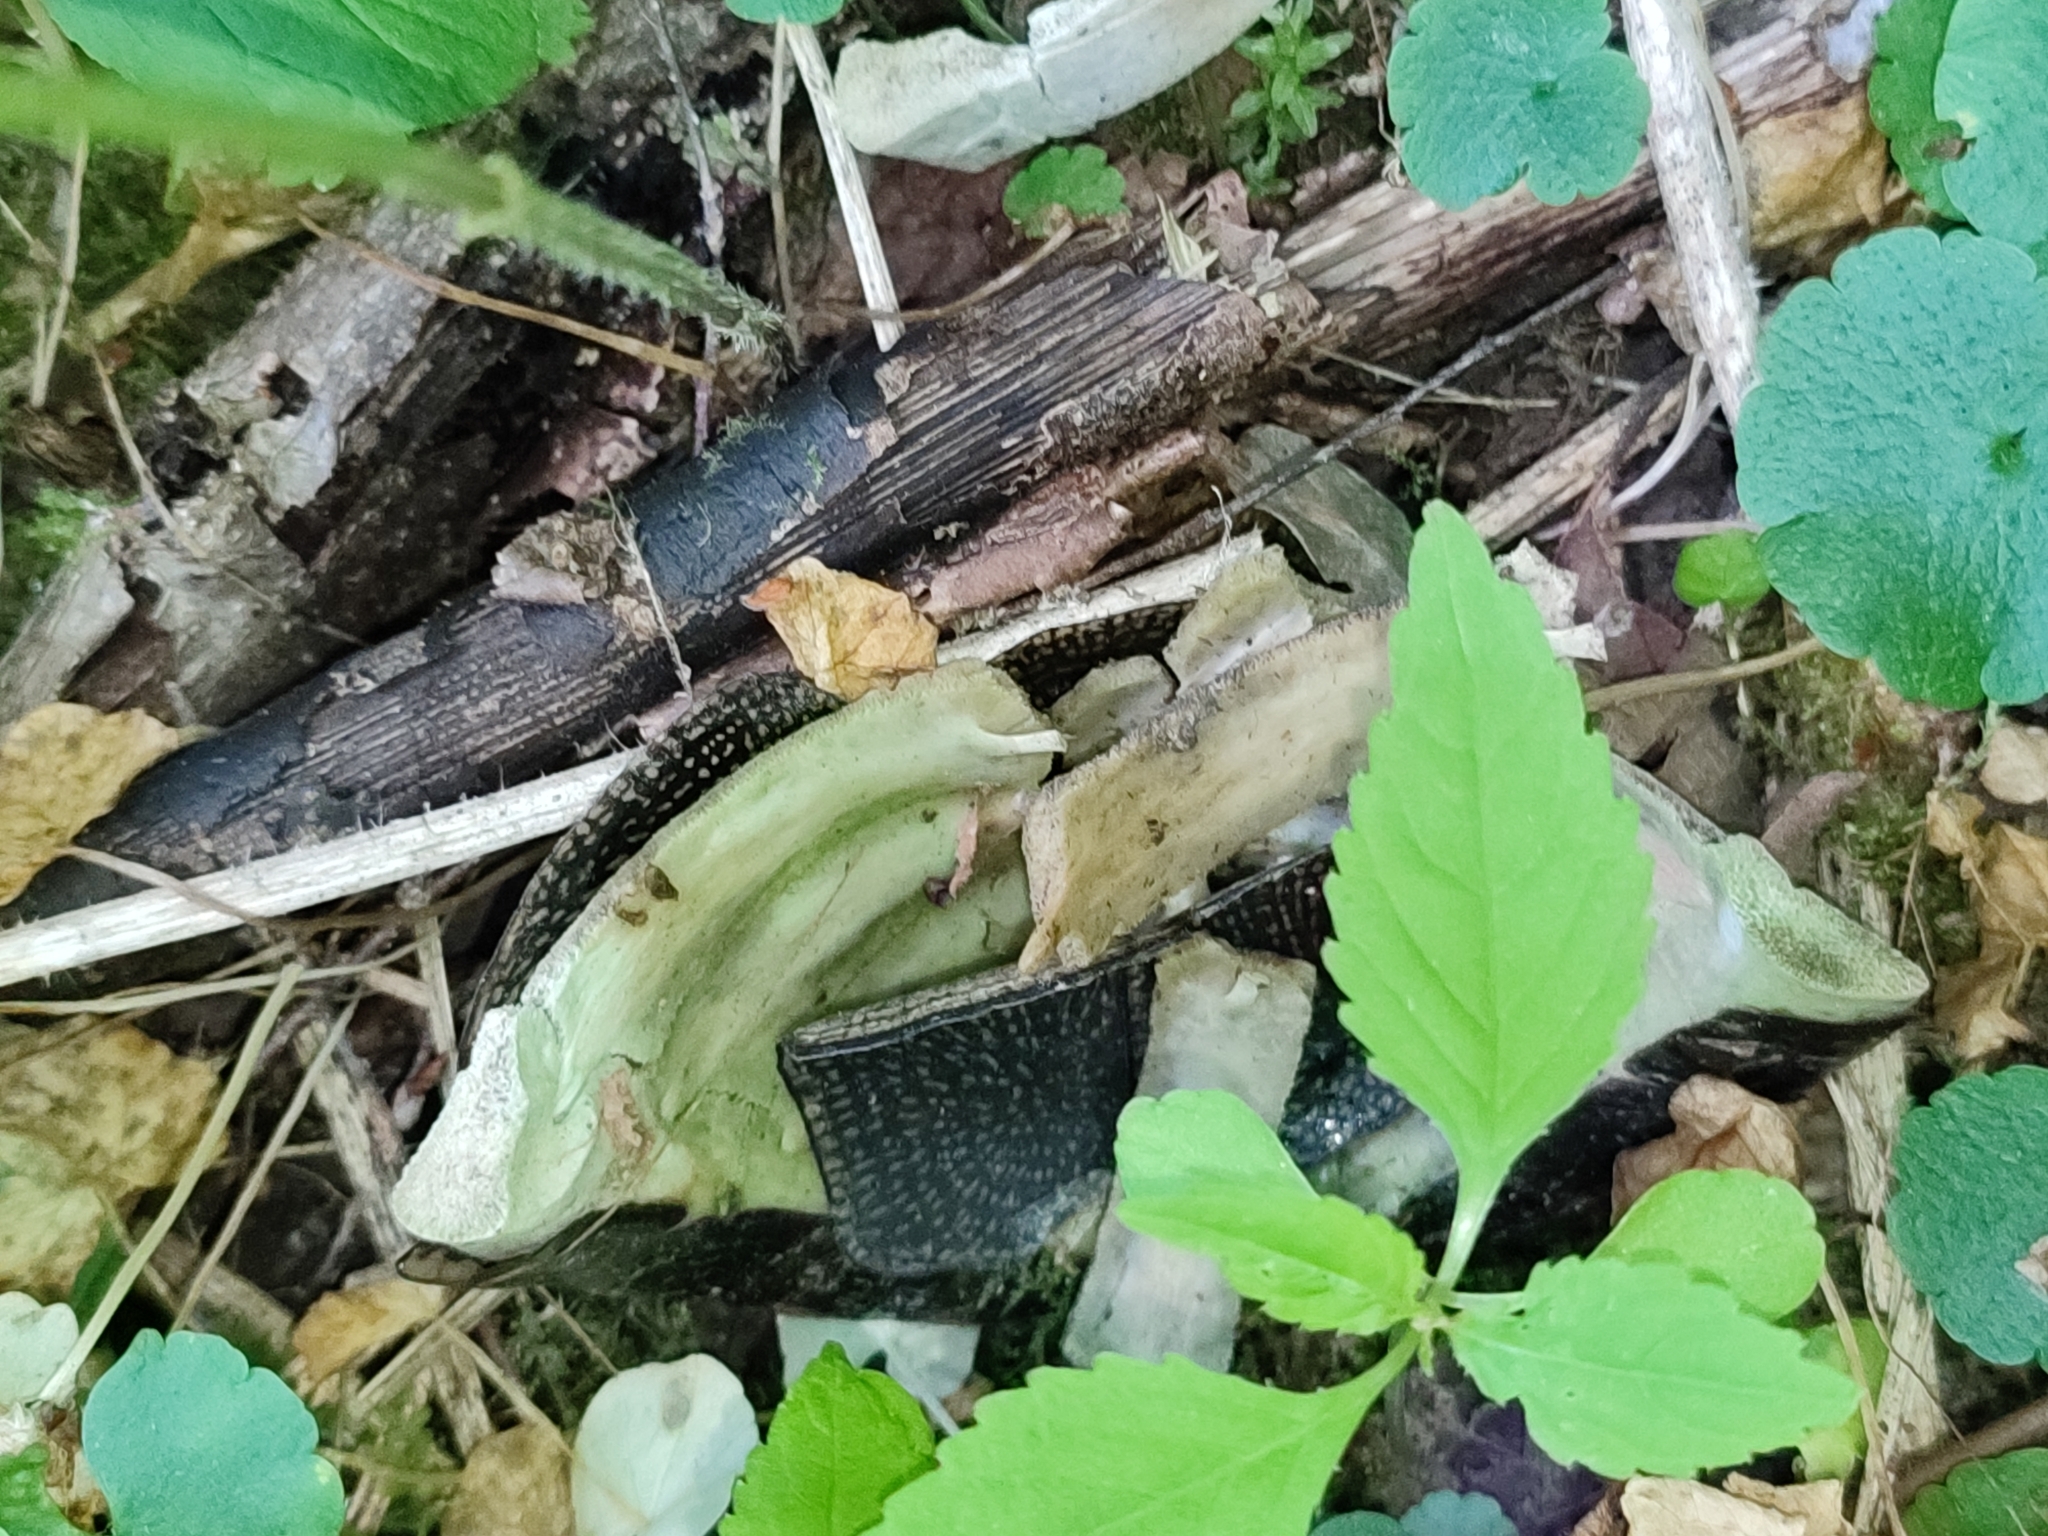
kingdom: Animalia
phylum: Chordata
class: Testudines
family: Emydidae
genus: Emys
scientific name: Emys orbicularis
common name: European pond turtle
